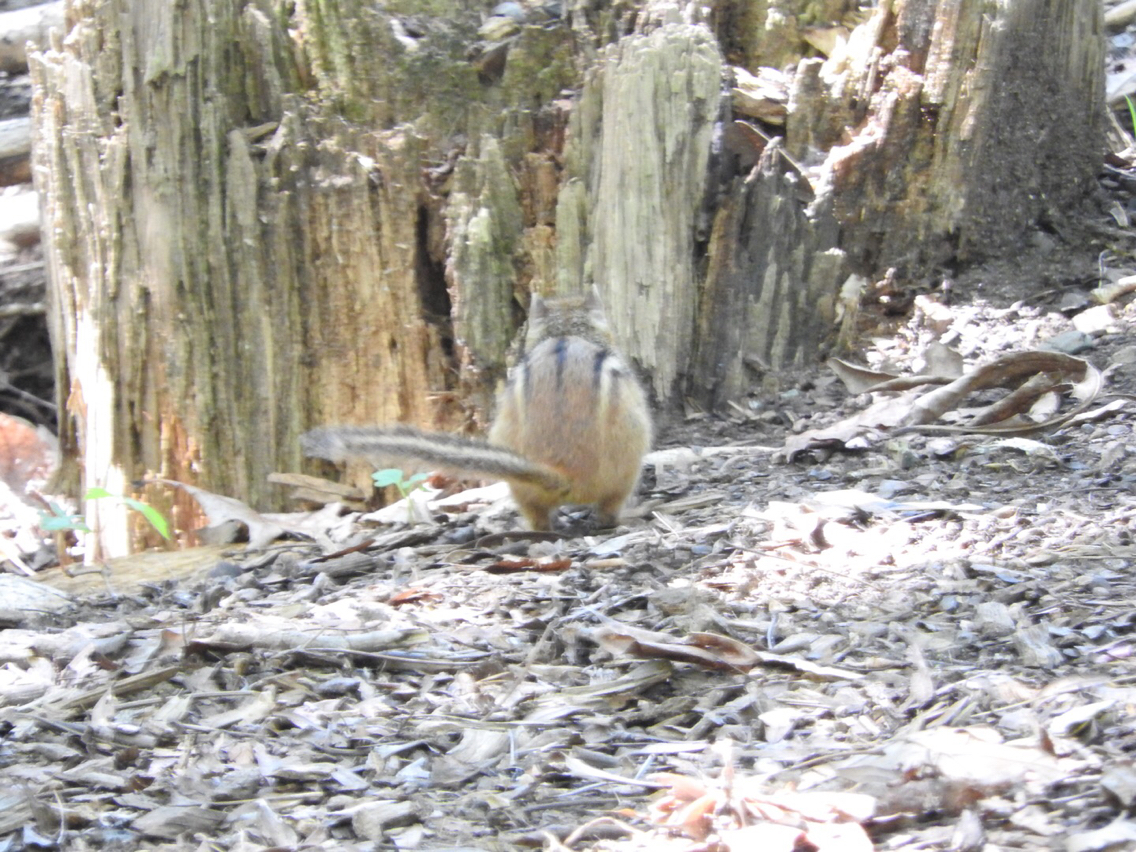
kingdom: Animalia
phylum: Chordata
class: Mammalia
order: Rodentia
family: Sciuridae
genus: Tamias
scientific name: Tamias striatus
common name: Eastern chipmunk
